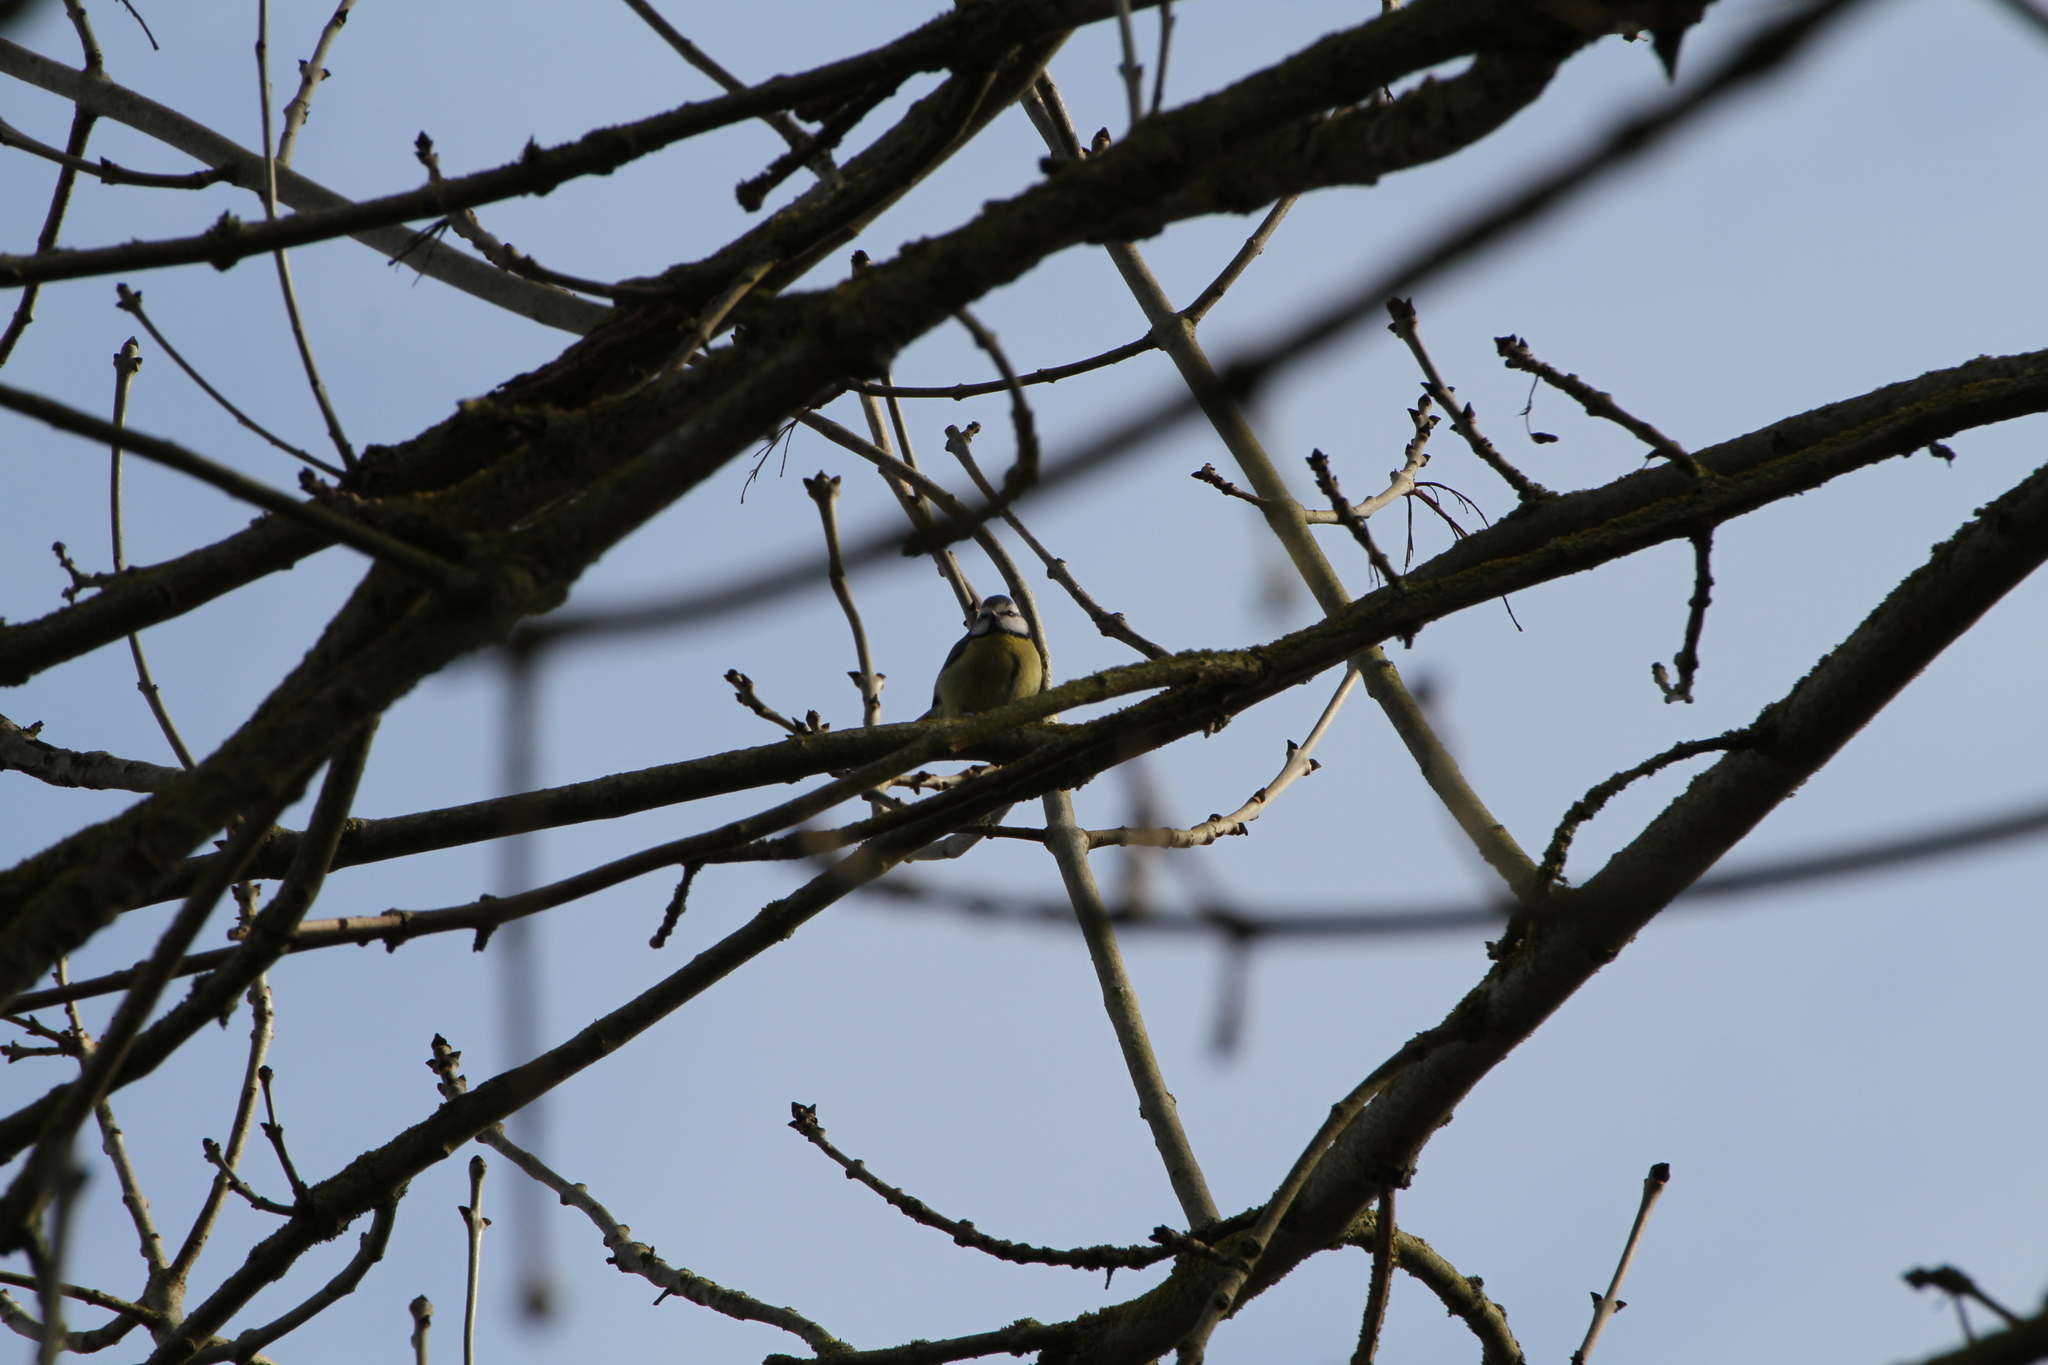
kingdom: Animalia
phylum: Chordata
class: Aves
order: Passeriformes
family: Paridae
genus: Cyanistes
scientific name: Cyanistes caeruleus
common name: Eurasian blue tit
